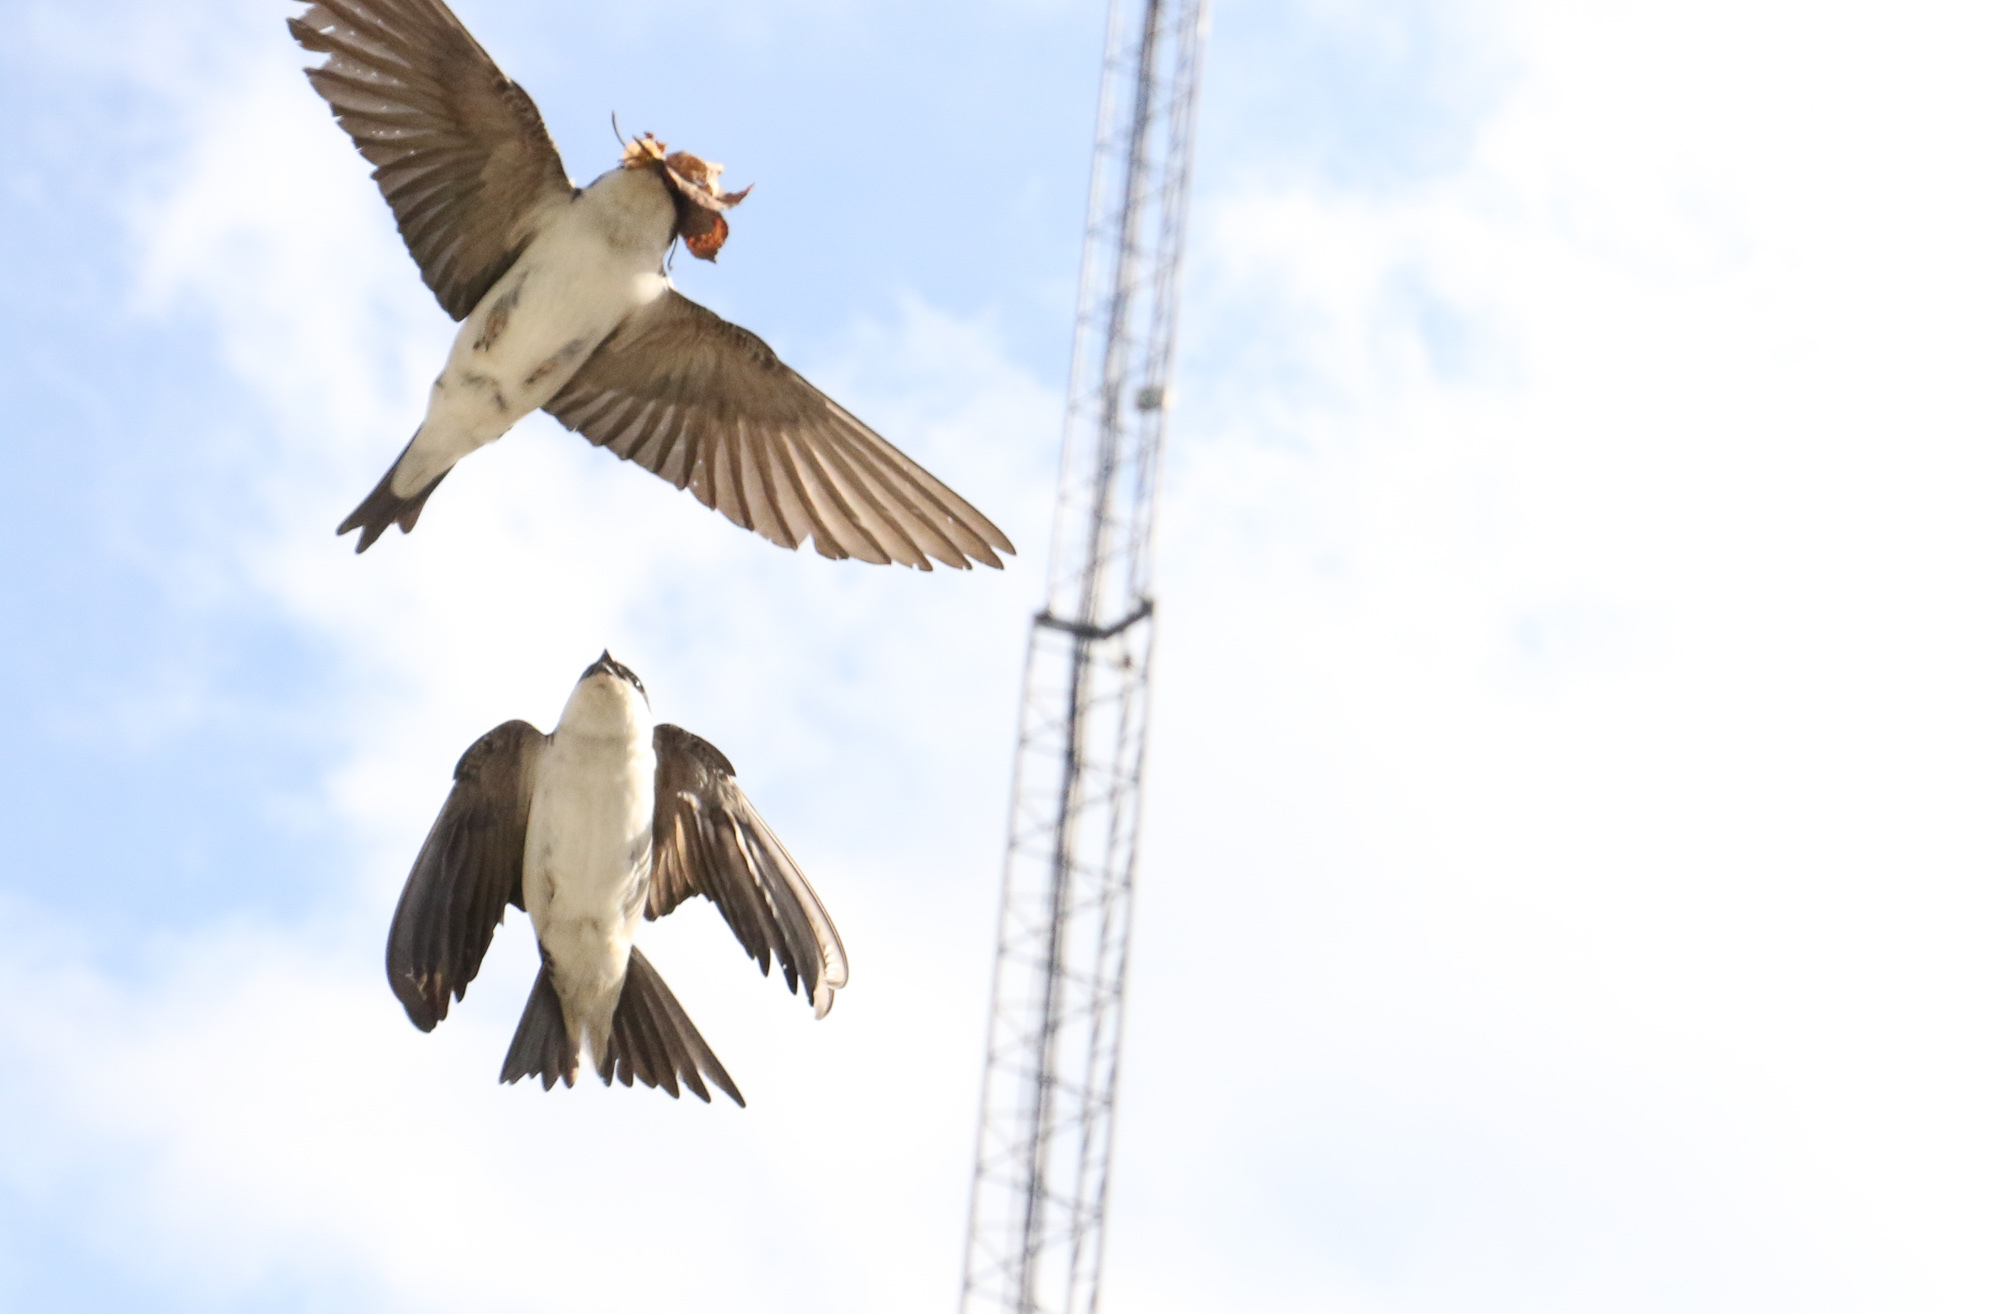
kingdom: Animalia
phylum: Chordata
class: Aves
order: Passeriformes
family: Hirundinidae
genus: Delichon
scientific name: Delichon urbicum
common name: Common house martin
